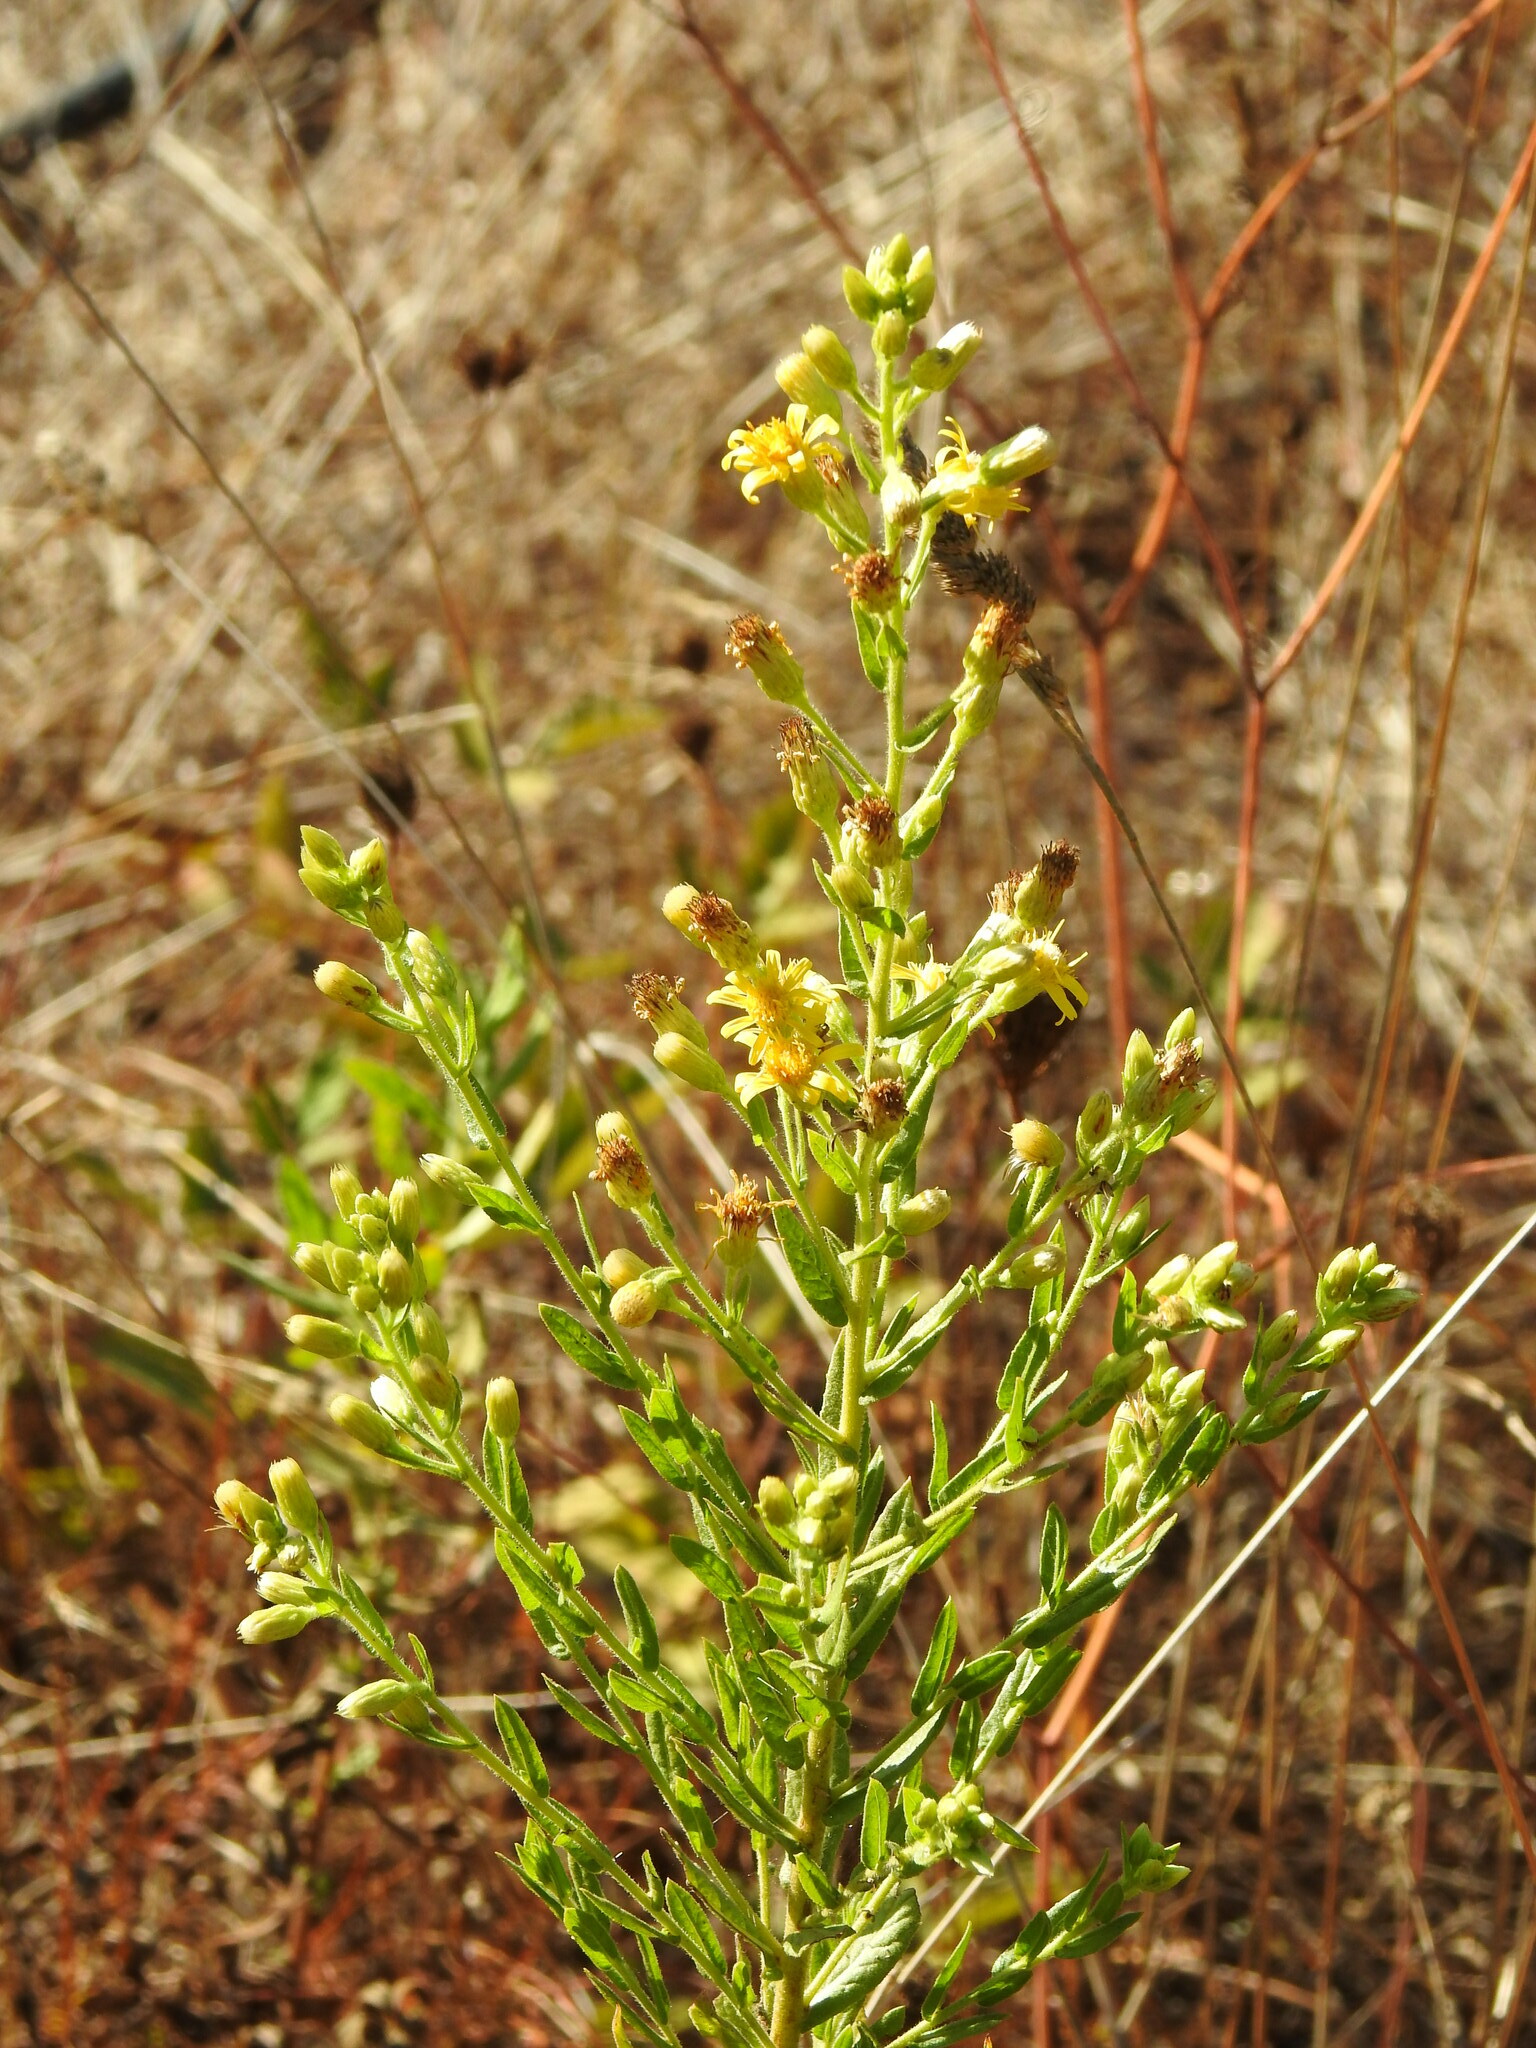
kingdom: Plantae
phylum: Tracheophyta
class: Magnoliopsida
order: Asterales
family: Asteraceae
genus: Dittrichia
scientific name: Dittrichia viscosa
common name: Woody fleabane
